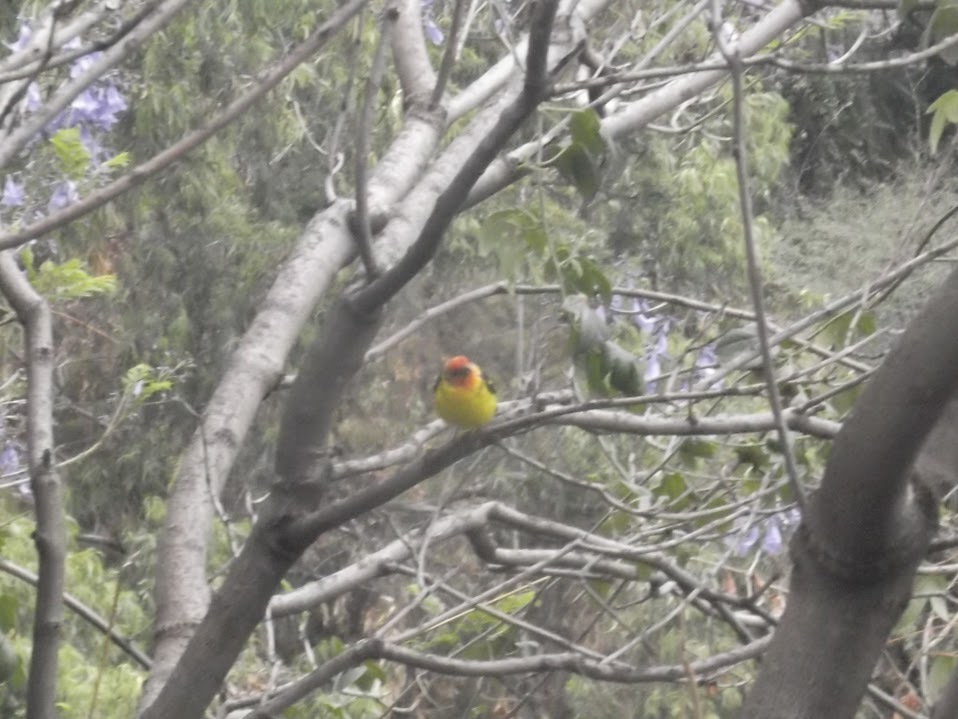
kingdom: Animalia
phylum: Chordata
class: Aves
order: Passeriformes
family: Cardinalidae
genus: Piranga
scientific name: Piranga ludoviciana
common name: Western tanager
